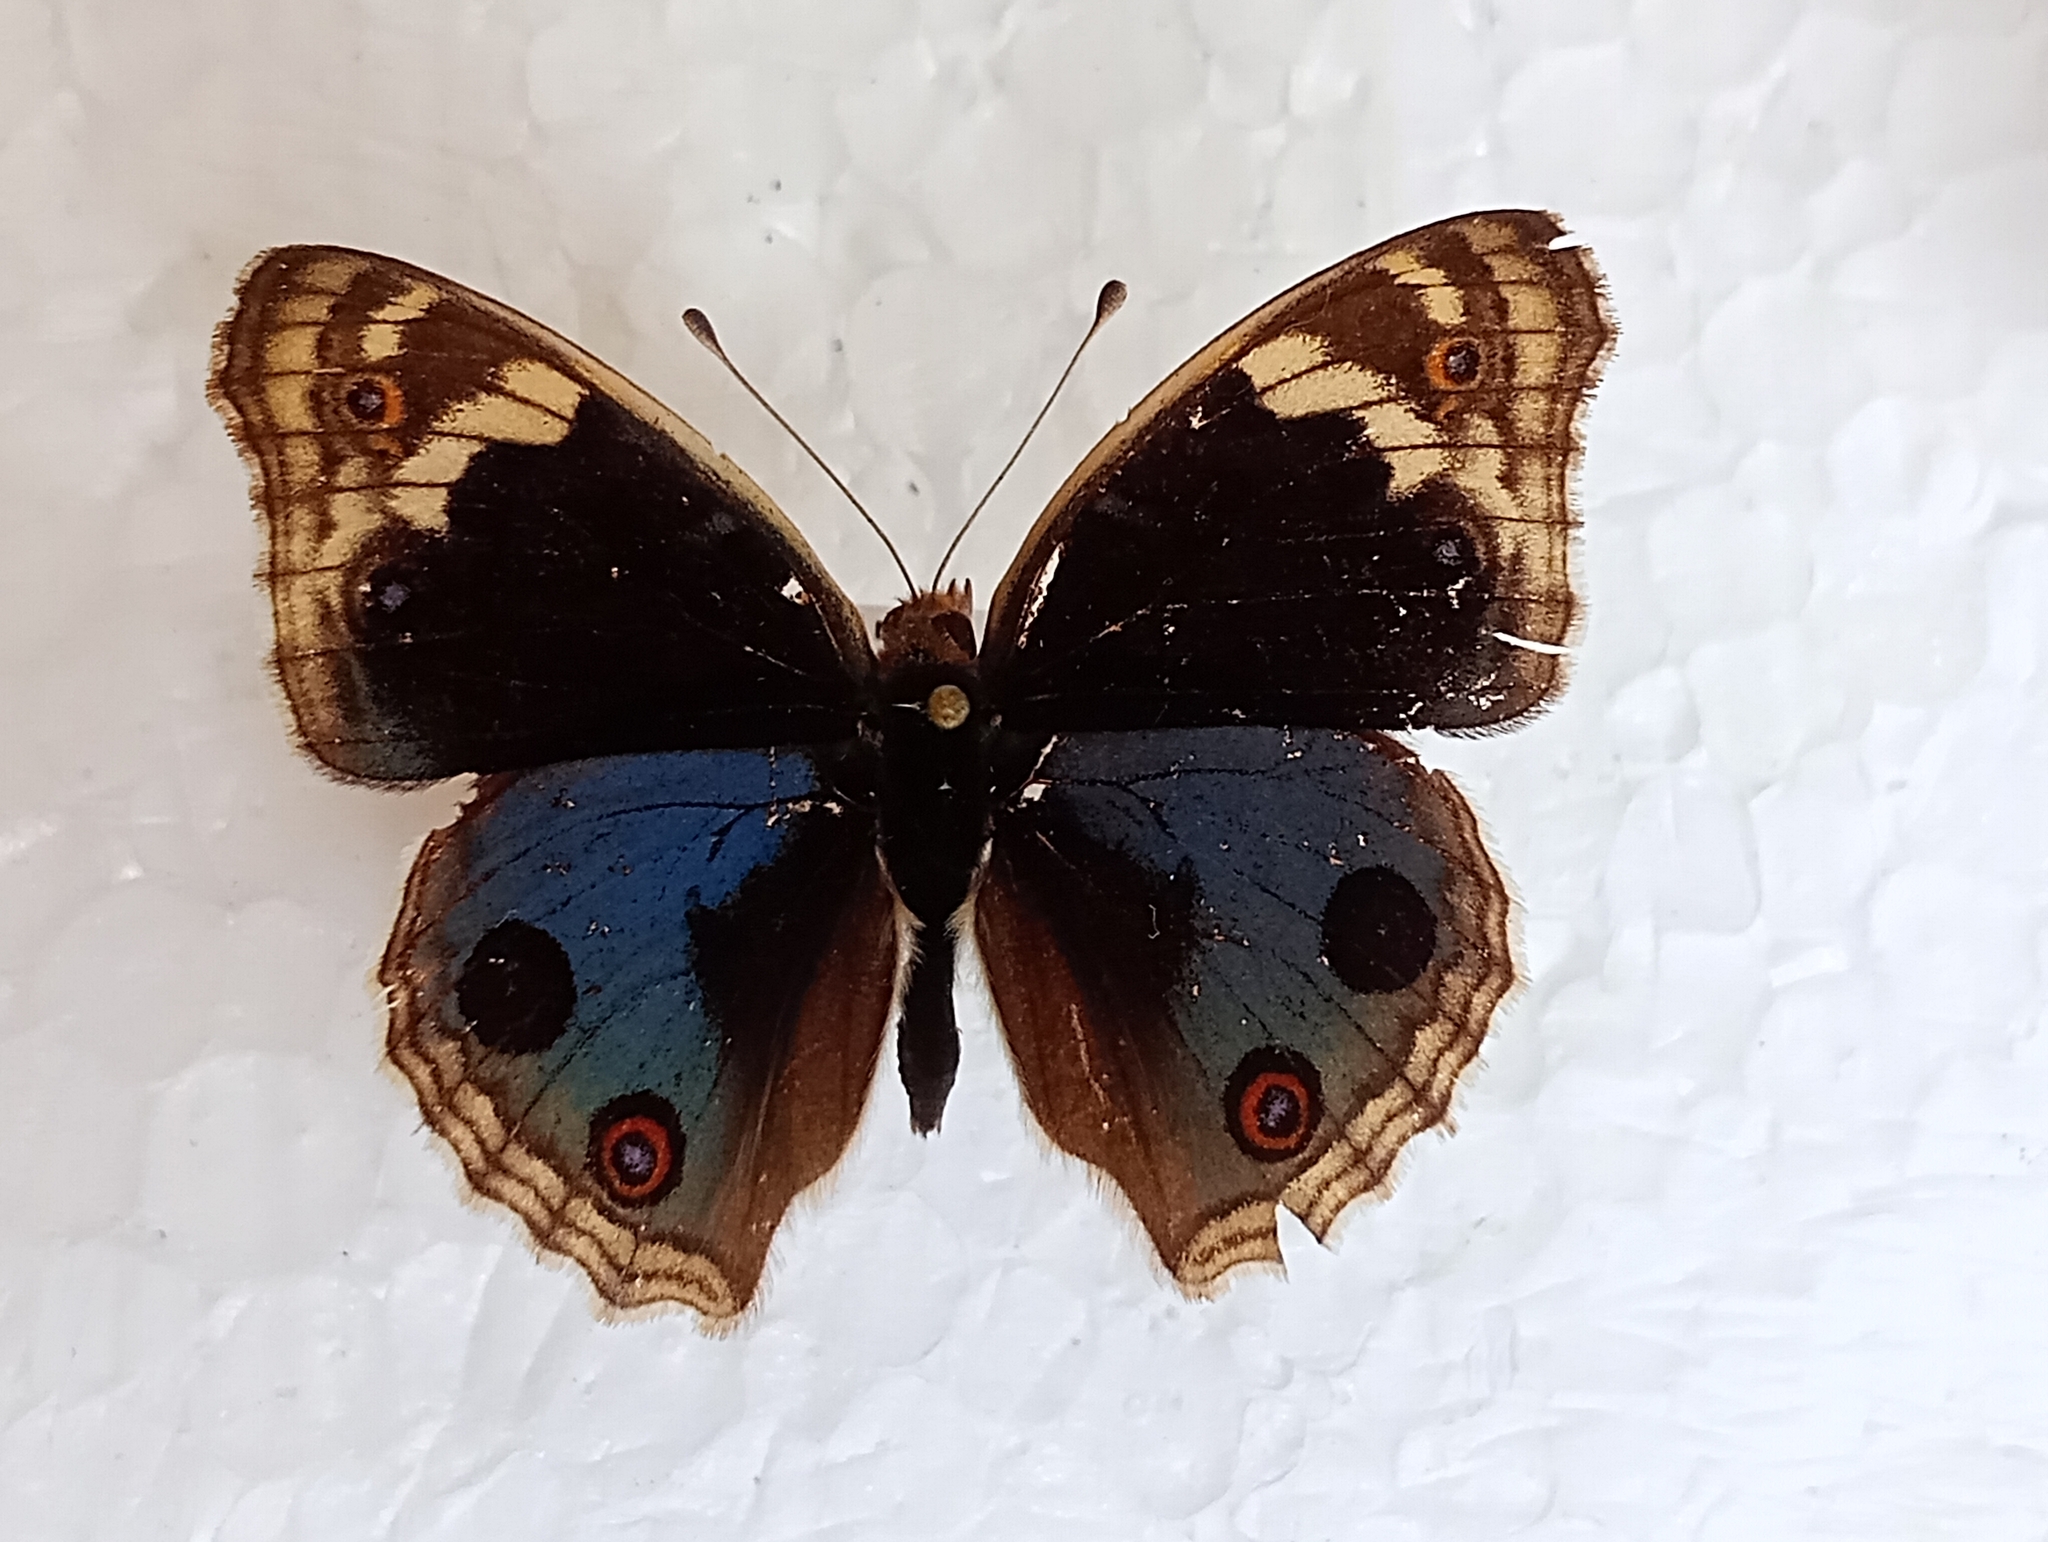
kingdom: Animalia
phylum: Arthropoda
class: Insecta
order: Lepidoptera
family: Nymphalidae
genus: Junonia
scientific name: Junonia orithya
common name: Blue pansy
